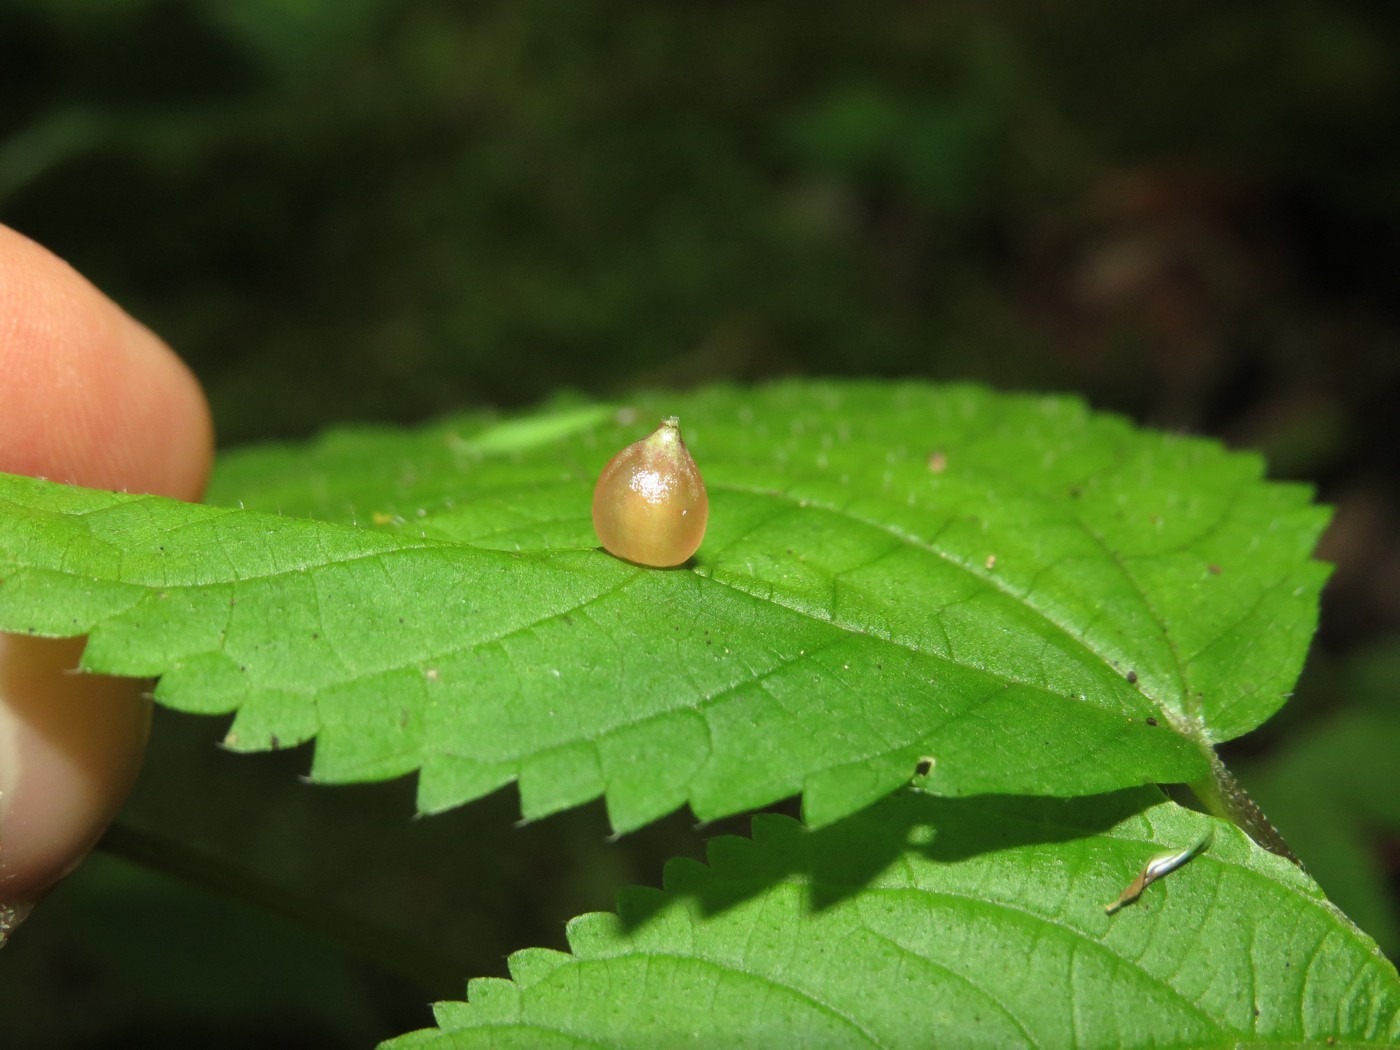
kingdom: Animalia
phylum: Arthropoda
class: Insecta
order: Diptera
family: Cecidomyiidae
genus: Dasineura
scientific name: Dasineura investita
